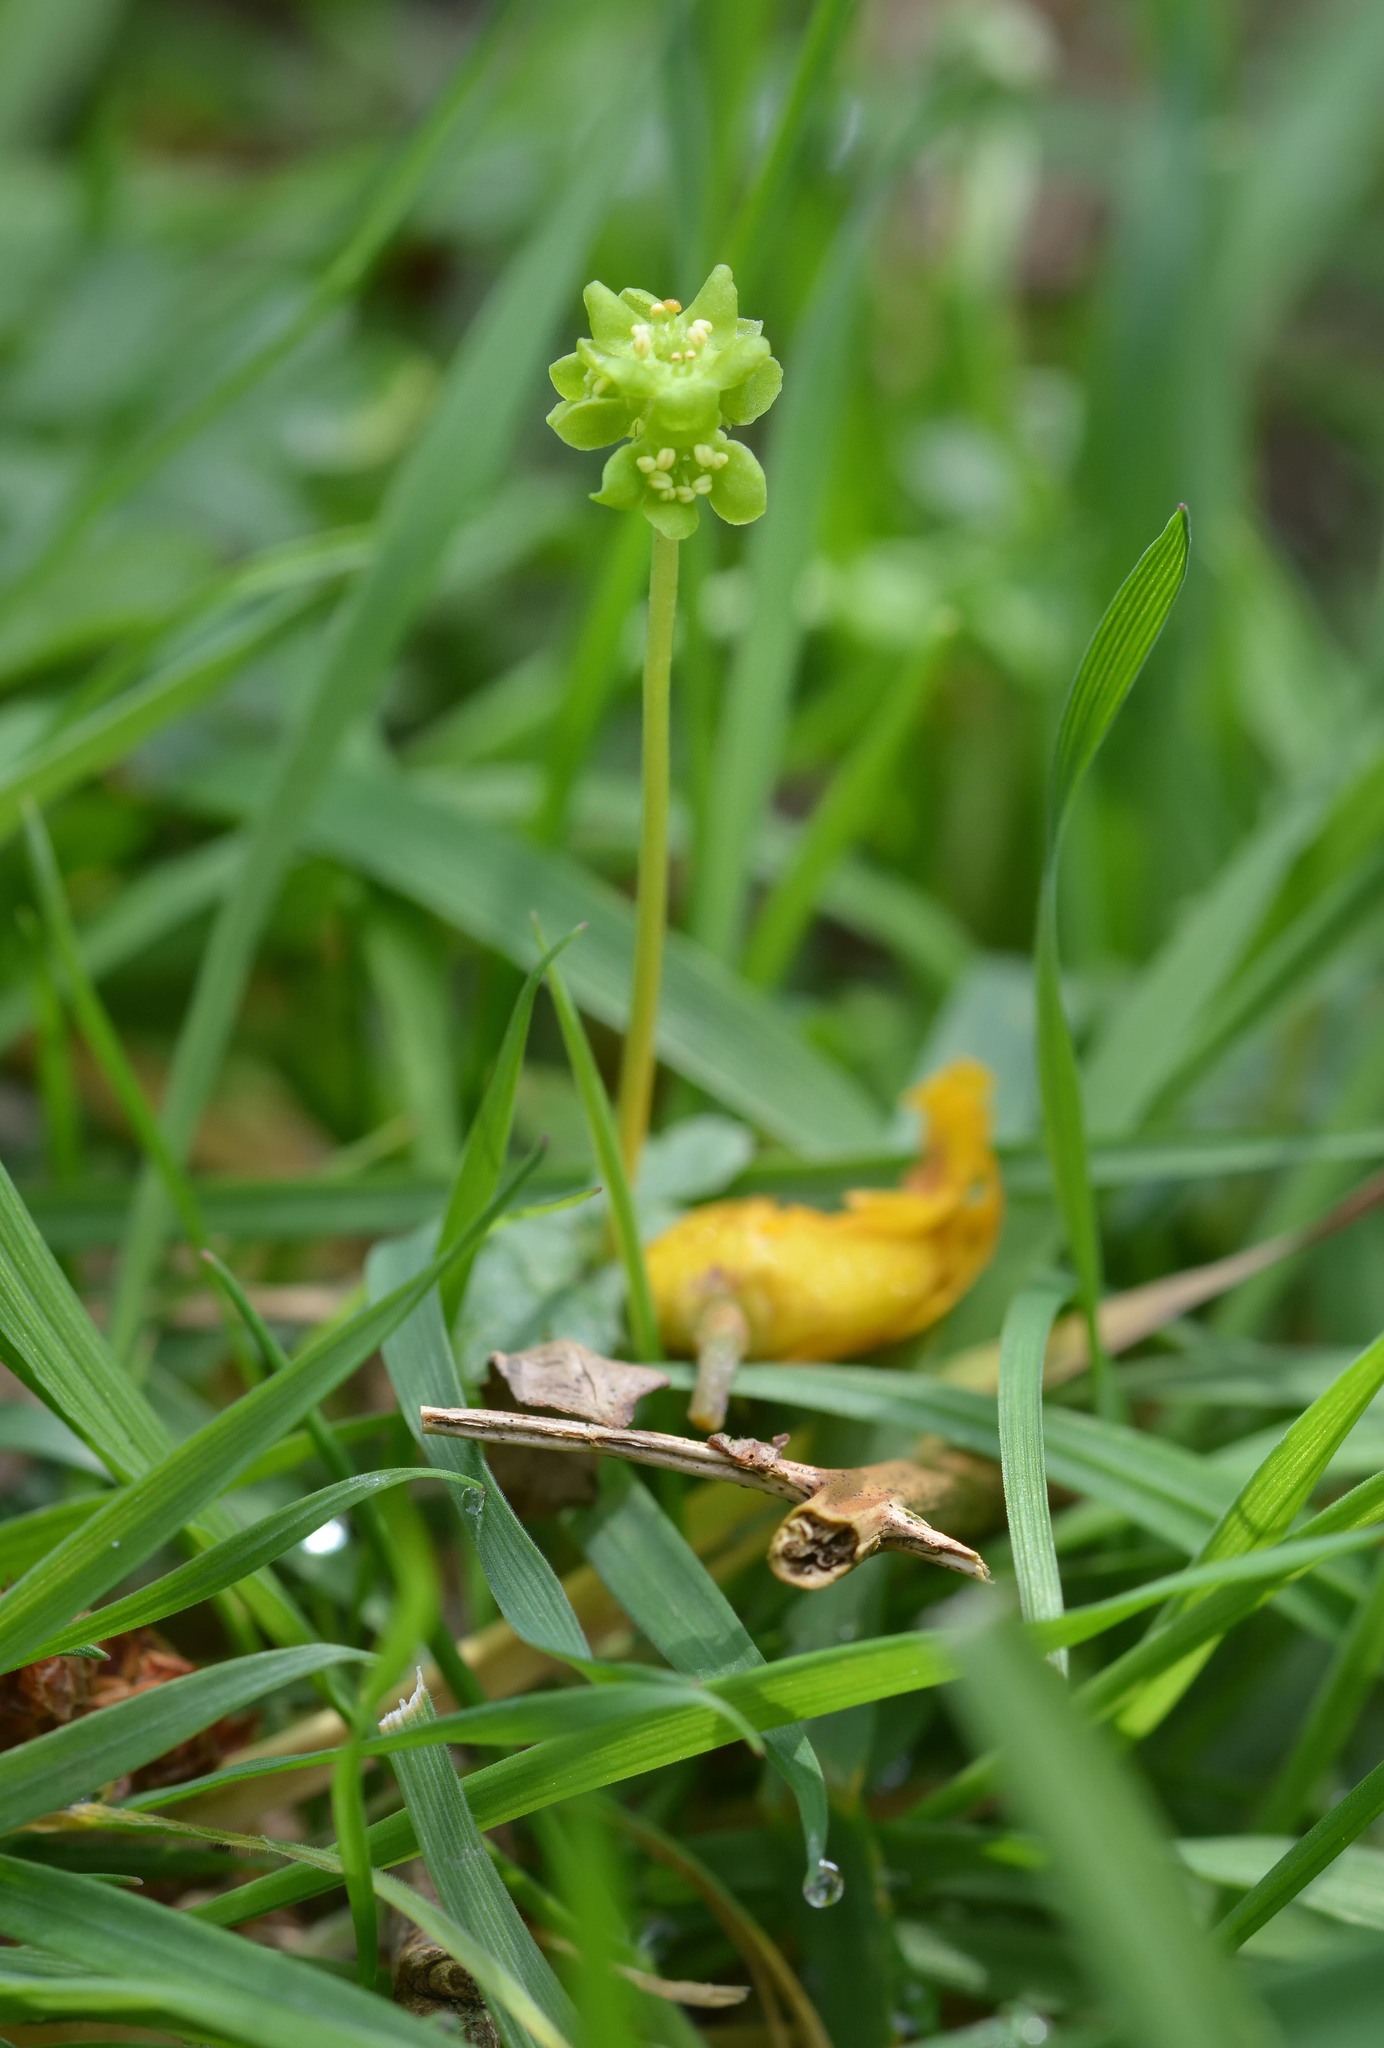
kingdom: Plantae
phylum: Tracheophyta
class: Magnoliopsida
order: Dipsacales
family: Viburnaceae
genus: Adoxa
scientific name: Adoxa moschatellina
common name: Moschatel
